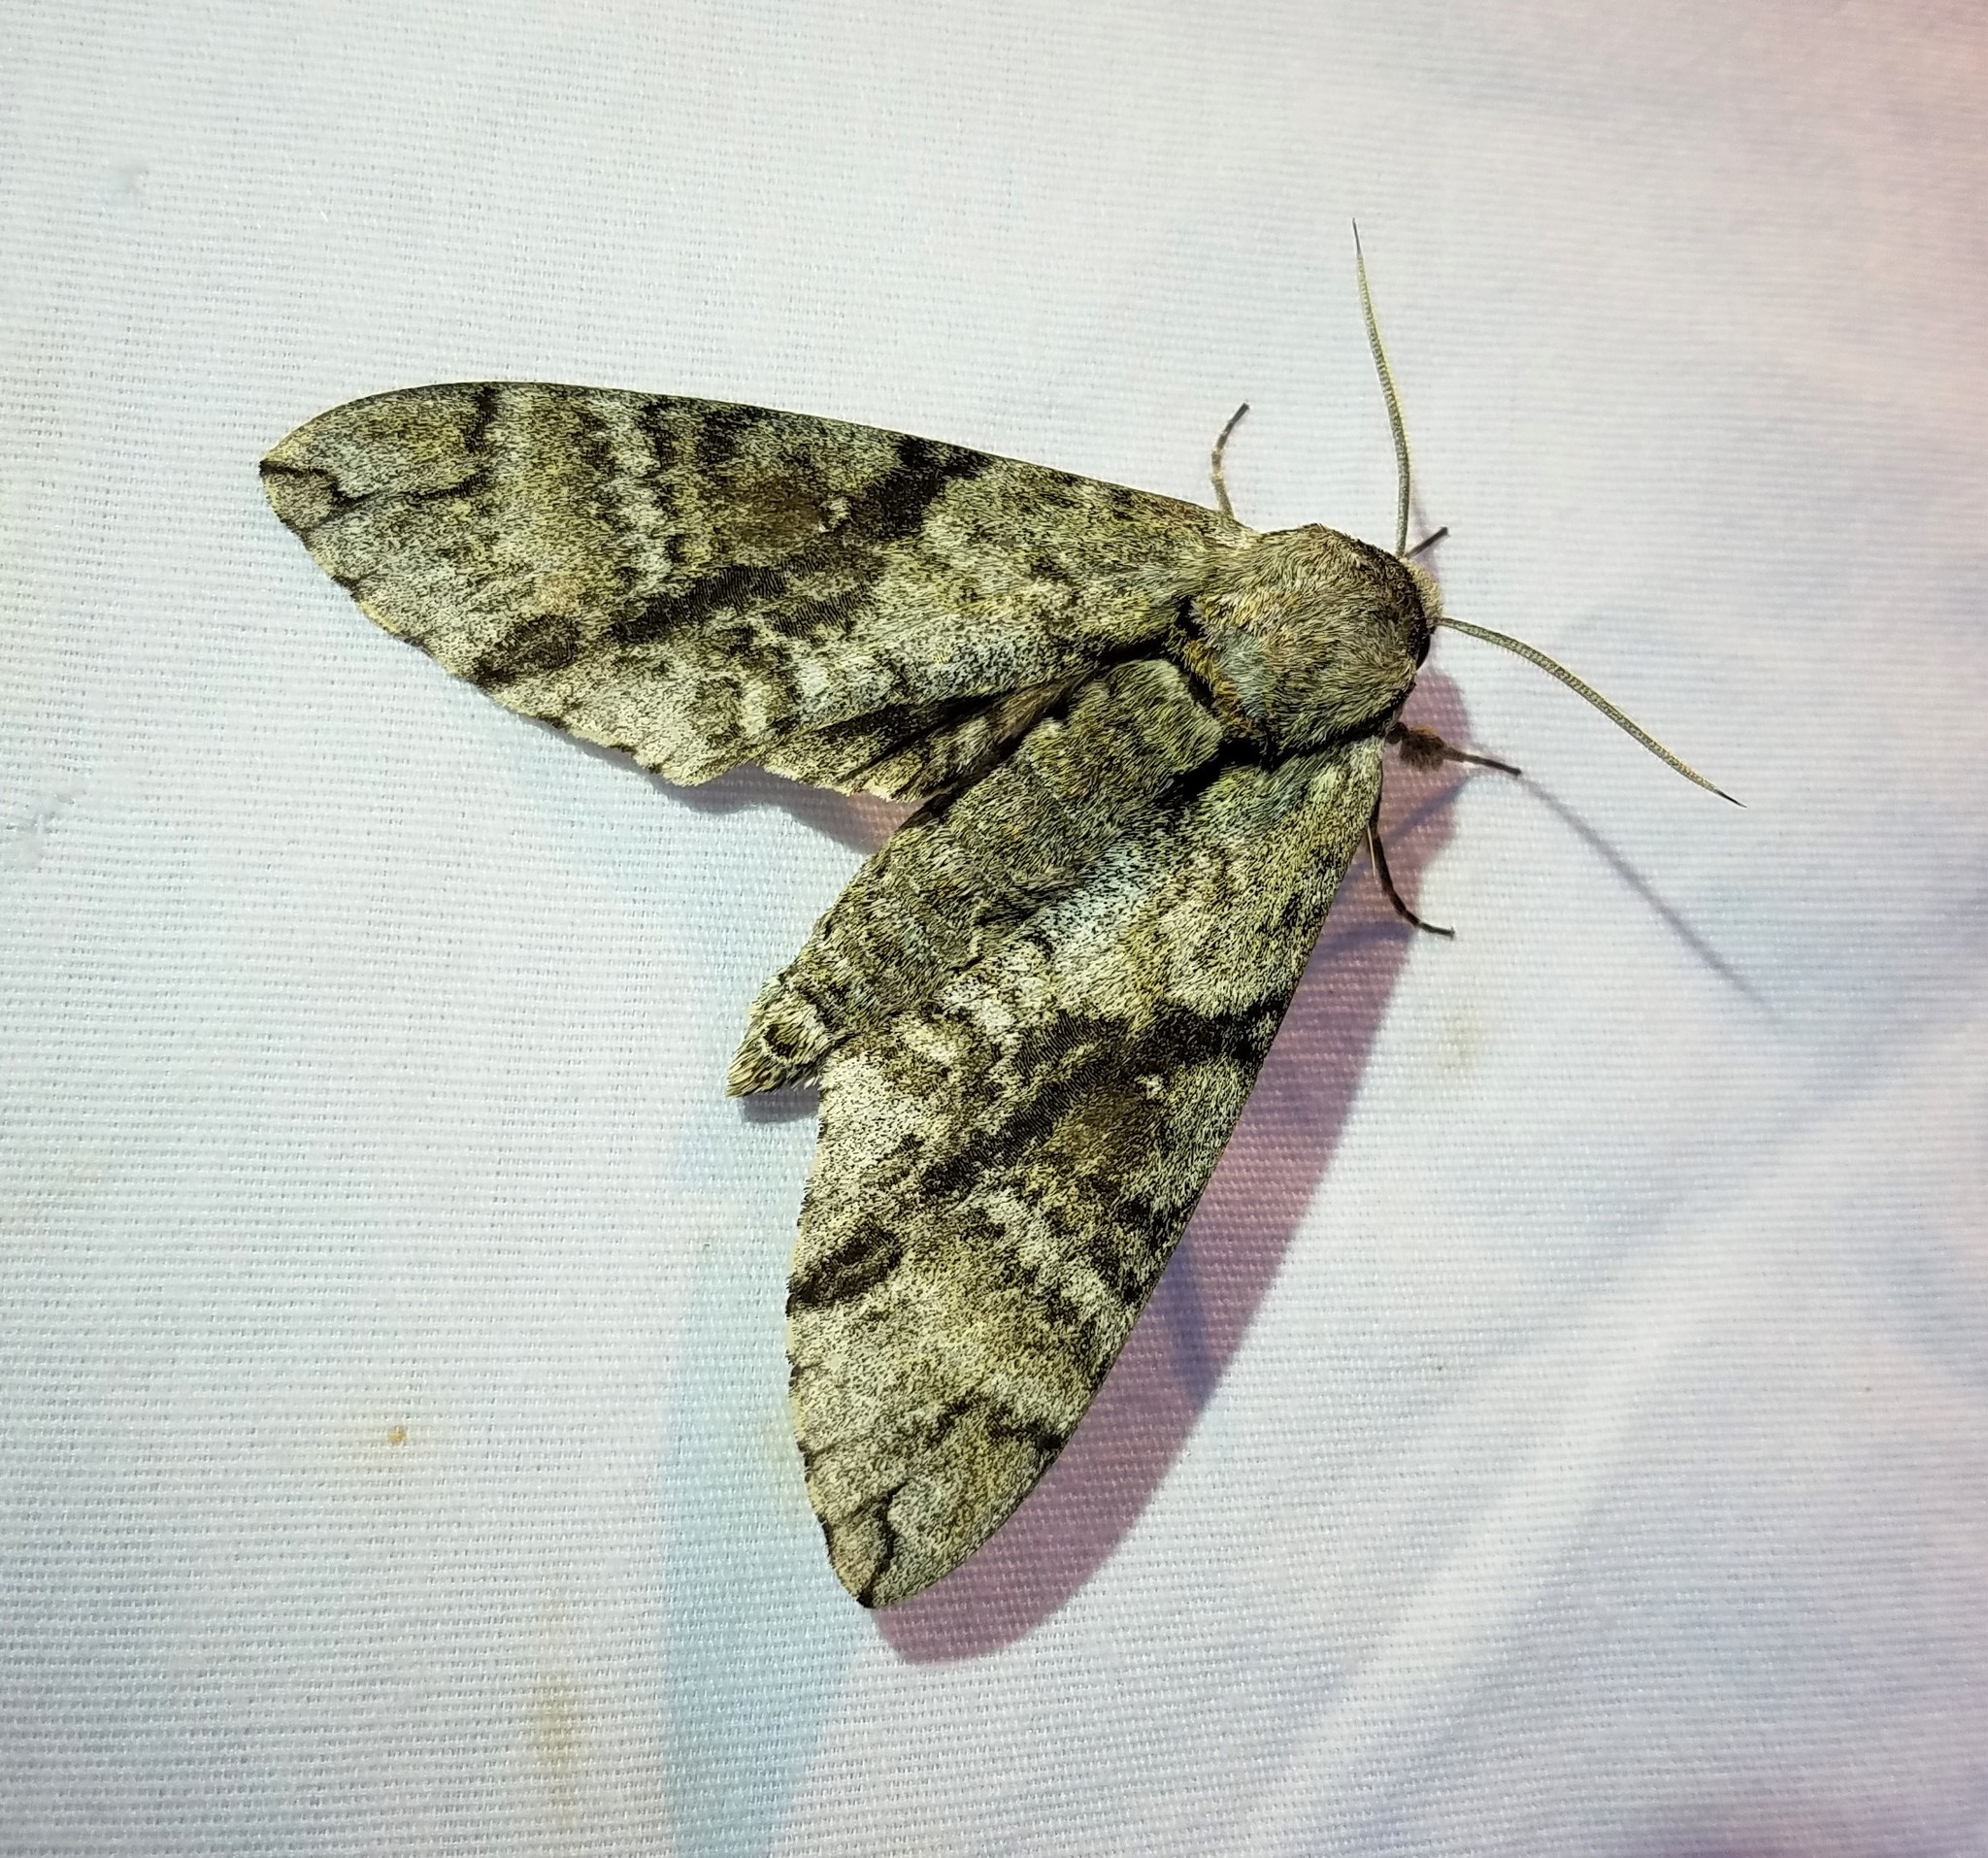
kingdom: Animalia
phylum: Arthropoda
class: Insecta
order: Lepidoptera
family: Sphingidae
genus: Manduca
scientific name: Manduca jasminearum
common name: Ash sphinx
